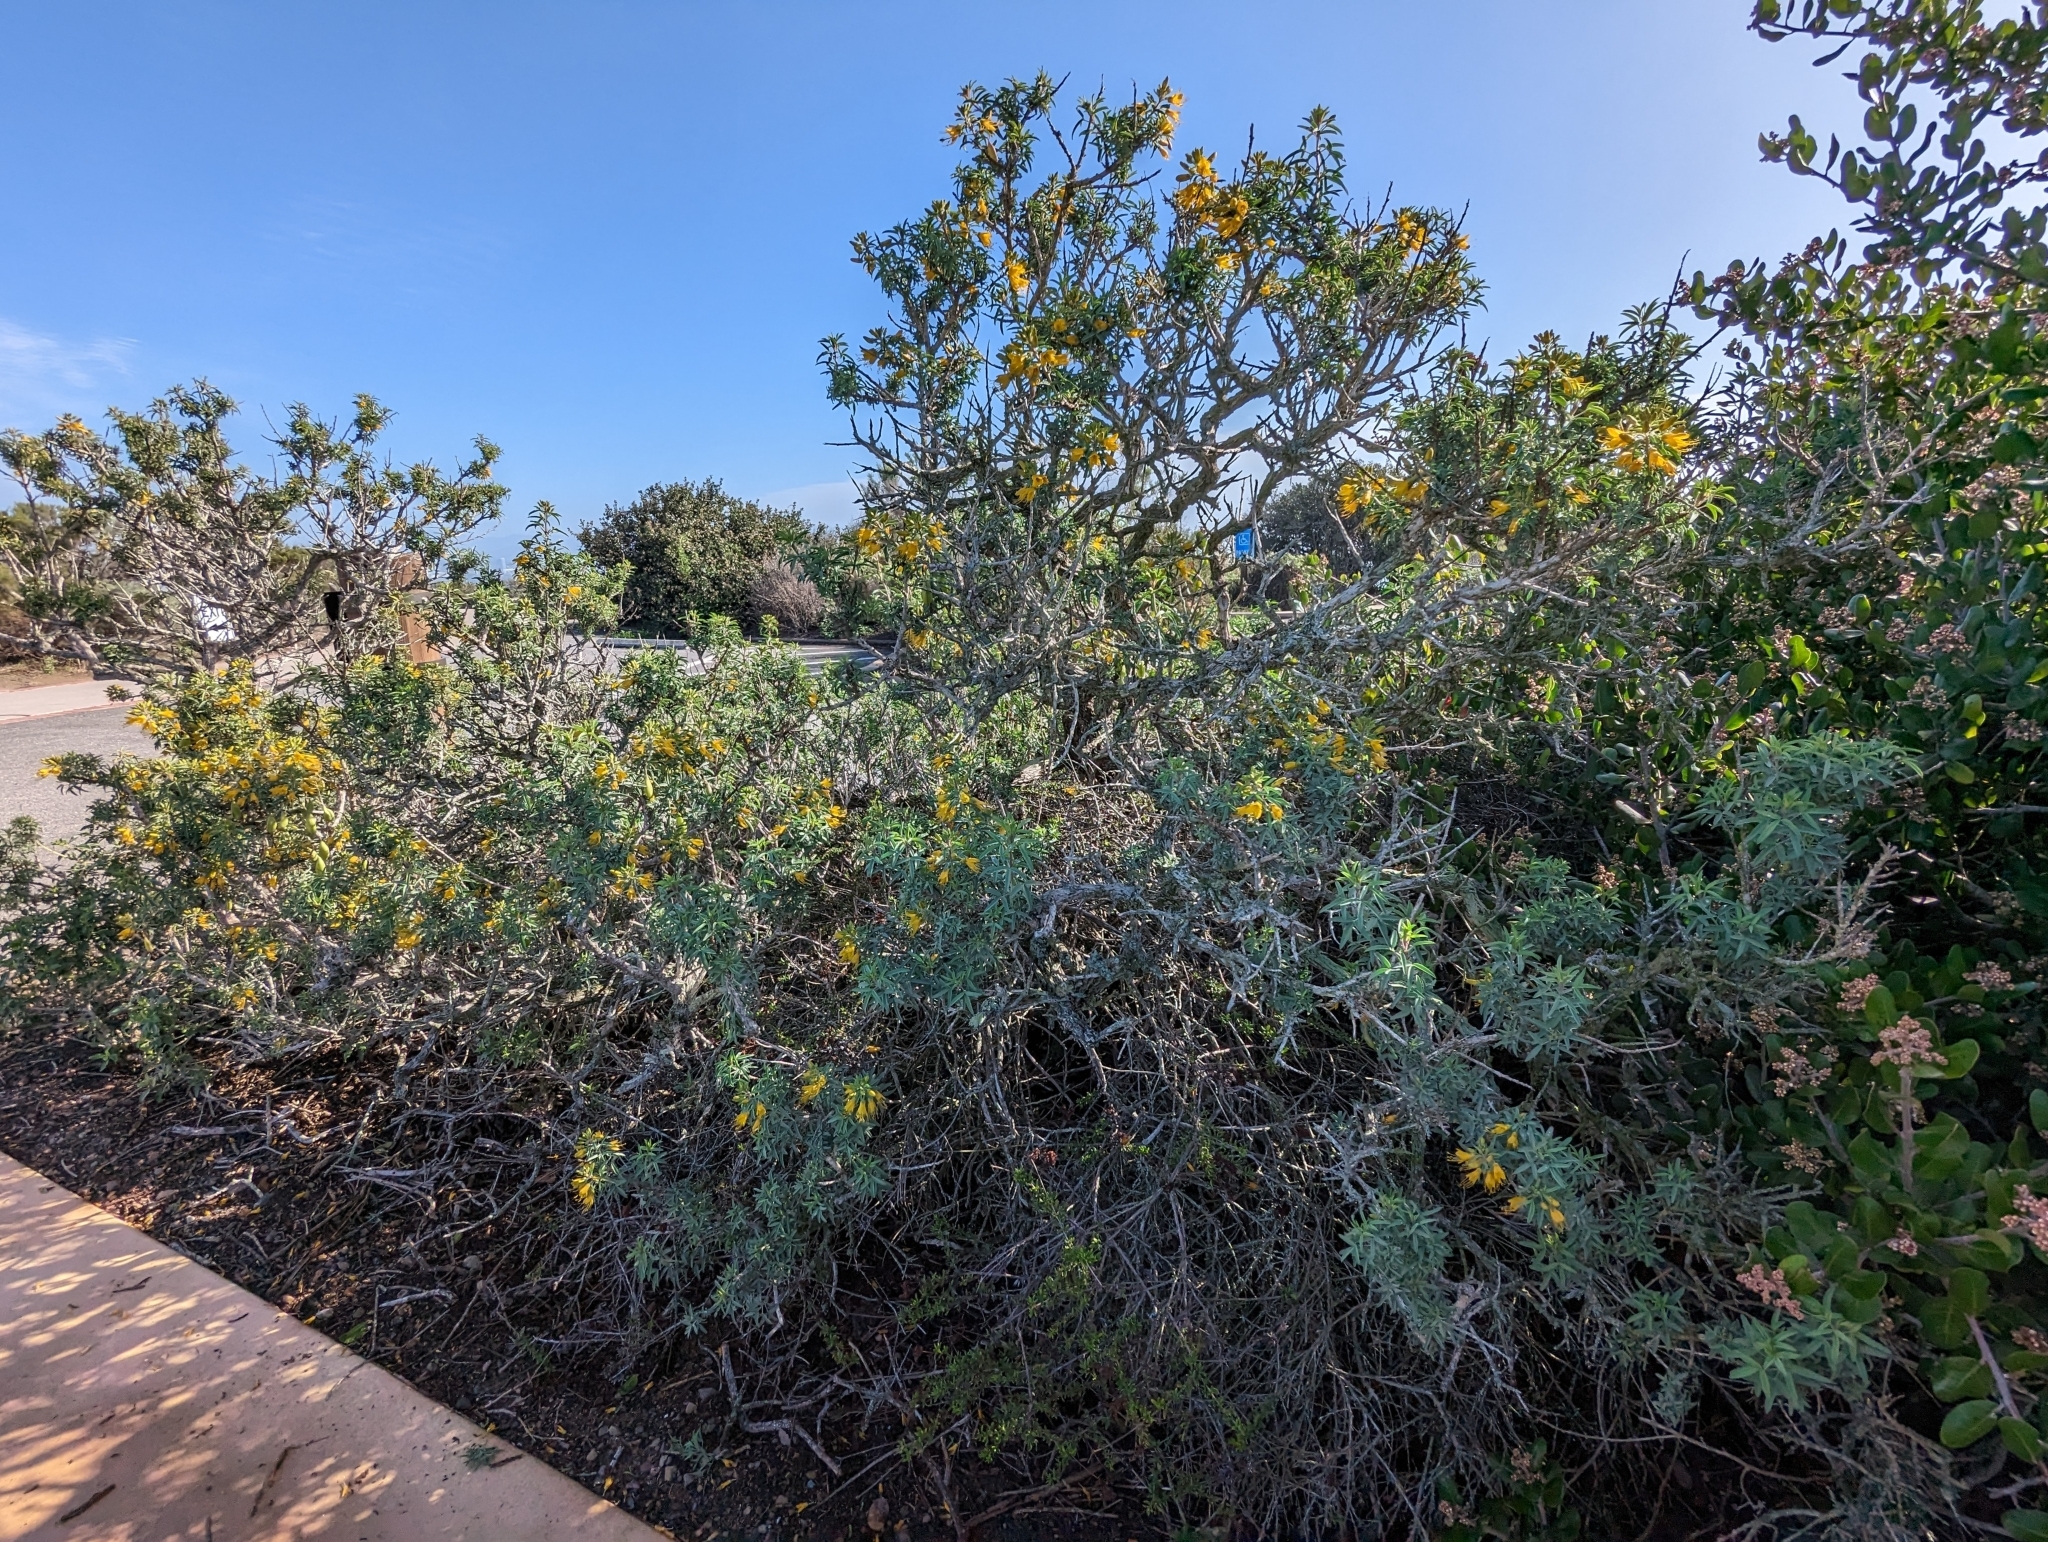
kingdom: Plantae
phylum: Tracheophyta
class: Magnoliopsida
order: Brassicales
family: Cleomaceae
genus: Cleomella
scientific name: Cleomella arborea
